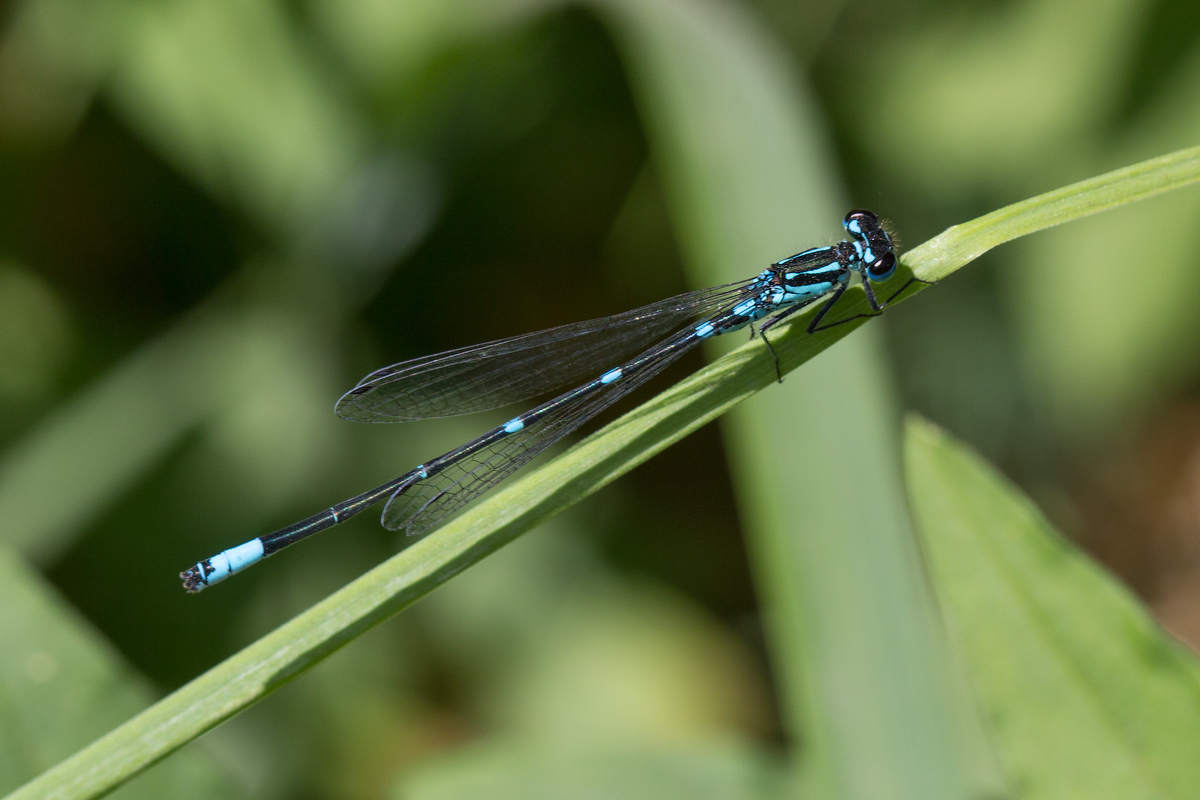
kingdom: Animalia
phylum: Arthropoda
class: Insecta
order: Odonata
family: Coenagrionidae
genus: Coenagrion
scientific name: Coenagrion pulchellum
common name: Variable bluet
